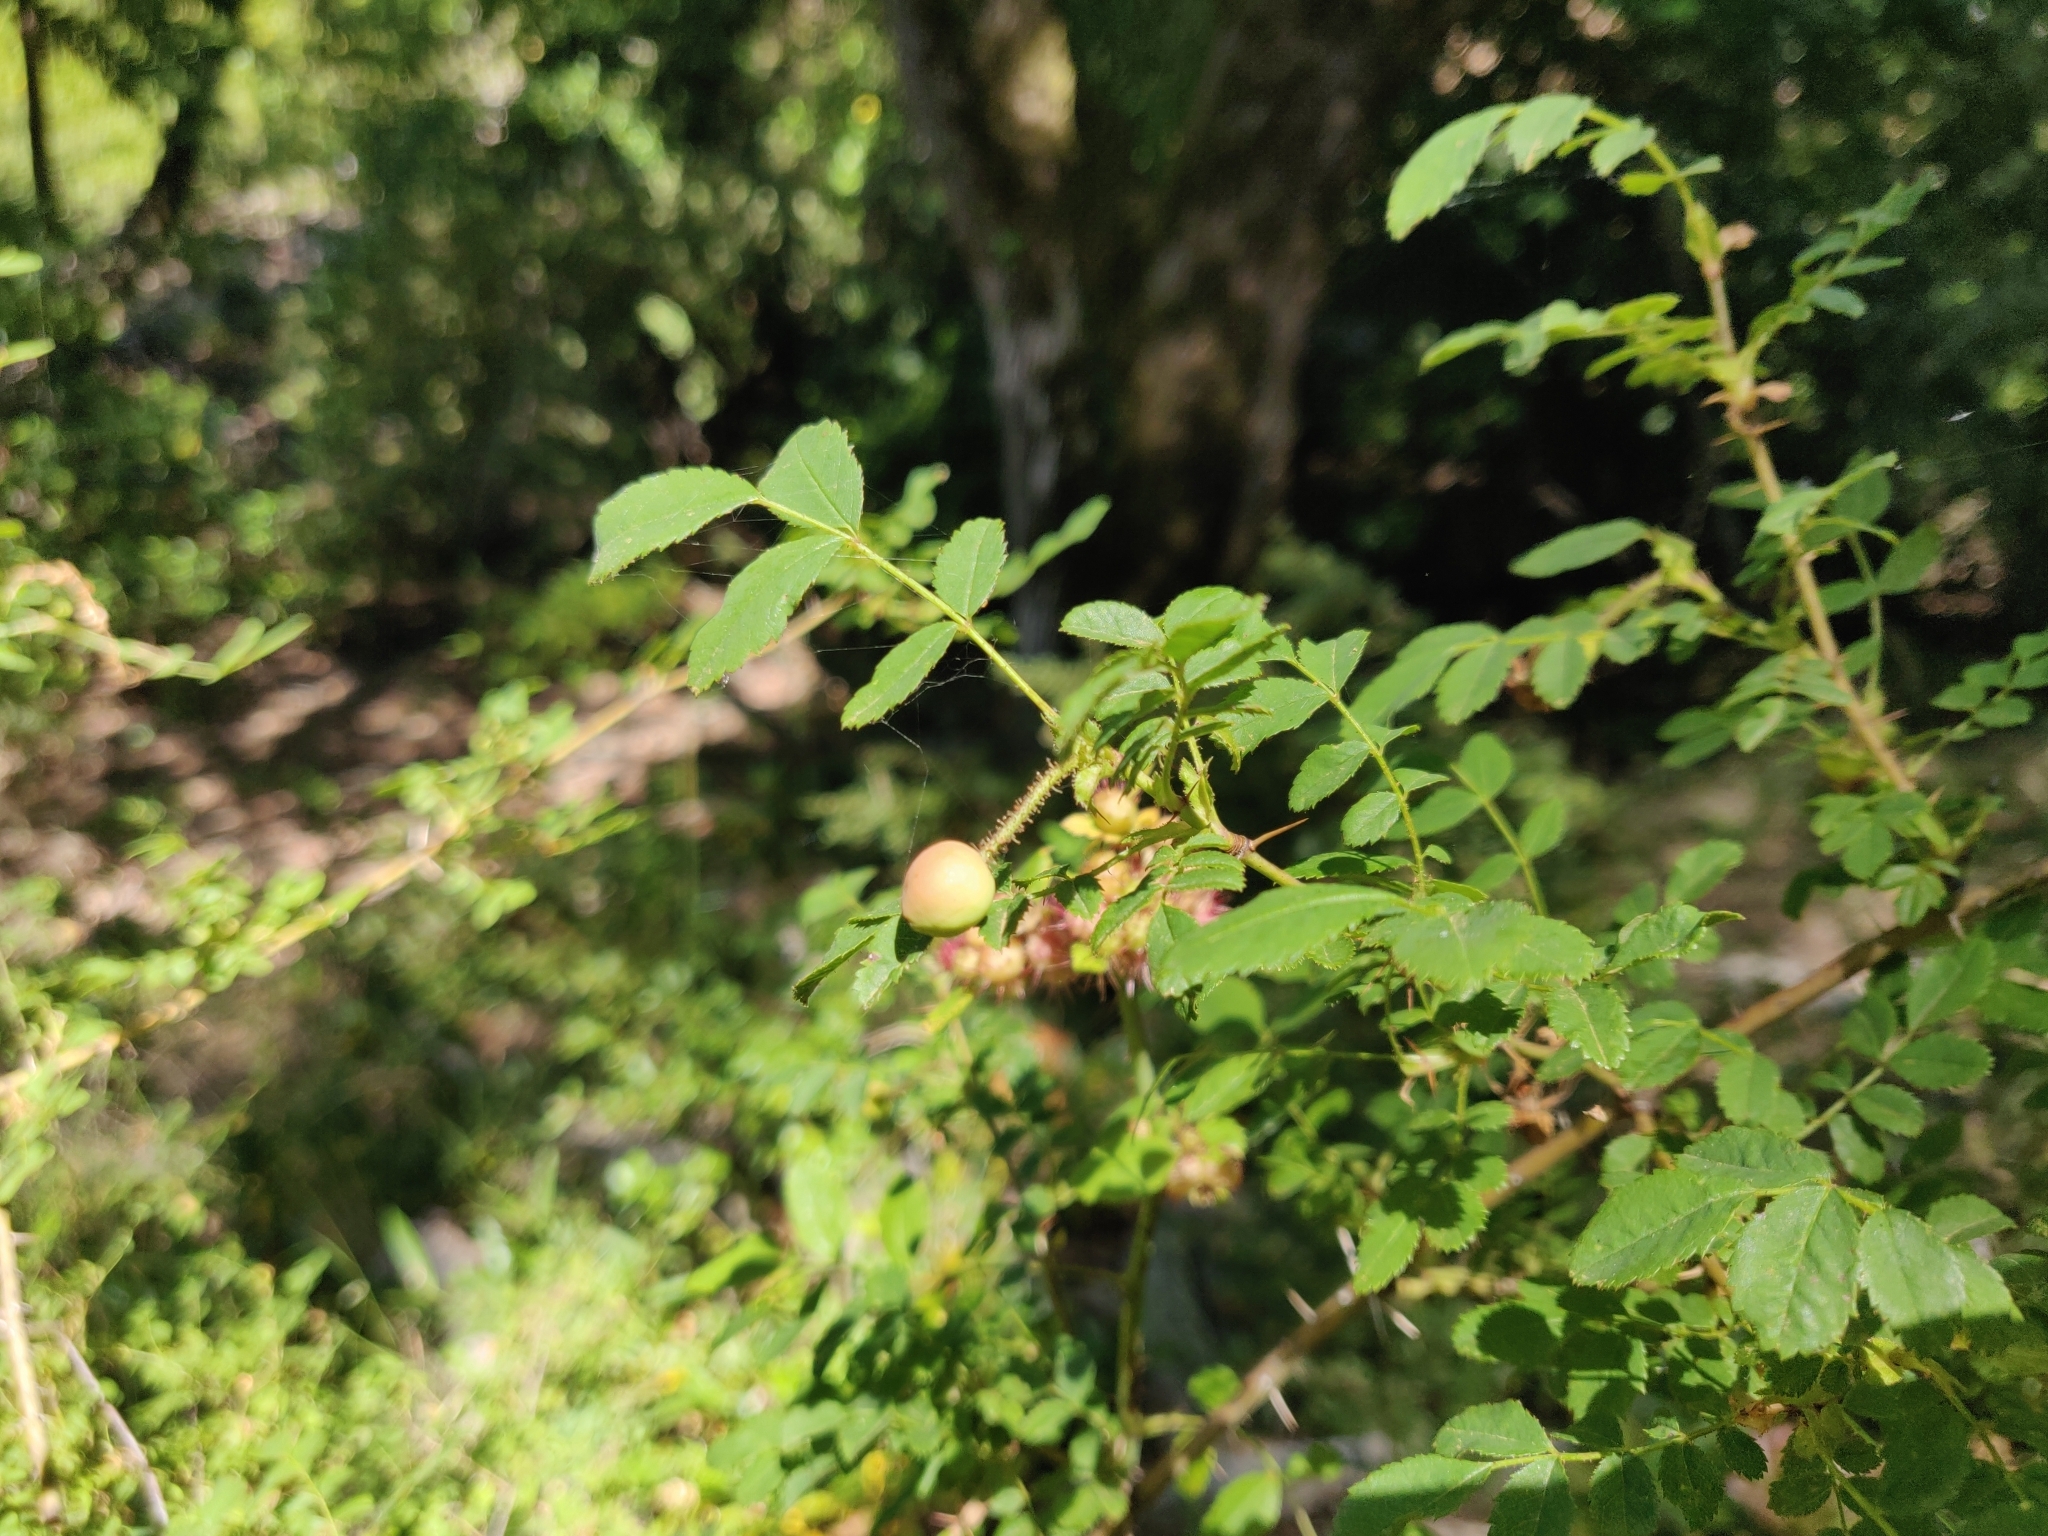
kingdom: Animalia
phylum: Arthropoda
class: Insecta
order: Hymenoptera
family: Cynipidae
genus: Diplolepis
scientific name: Diplolepis polita
